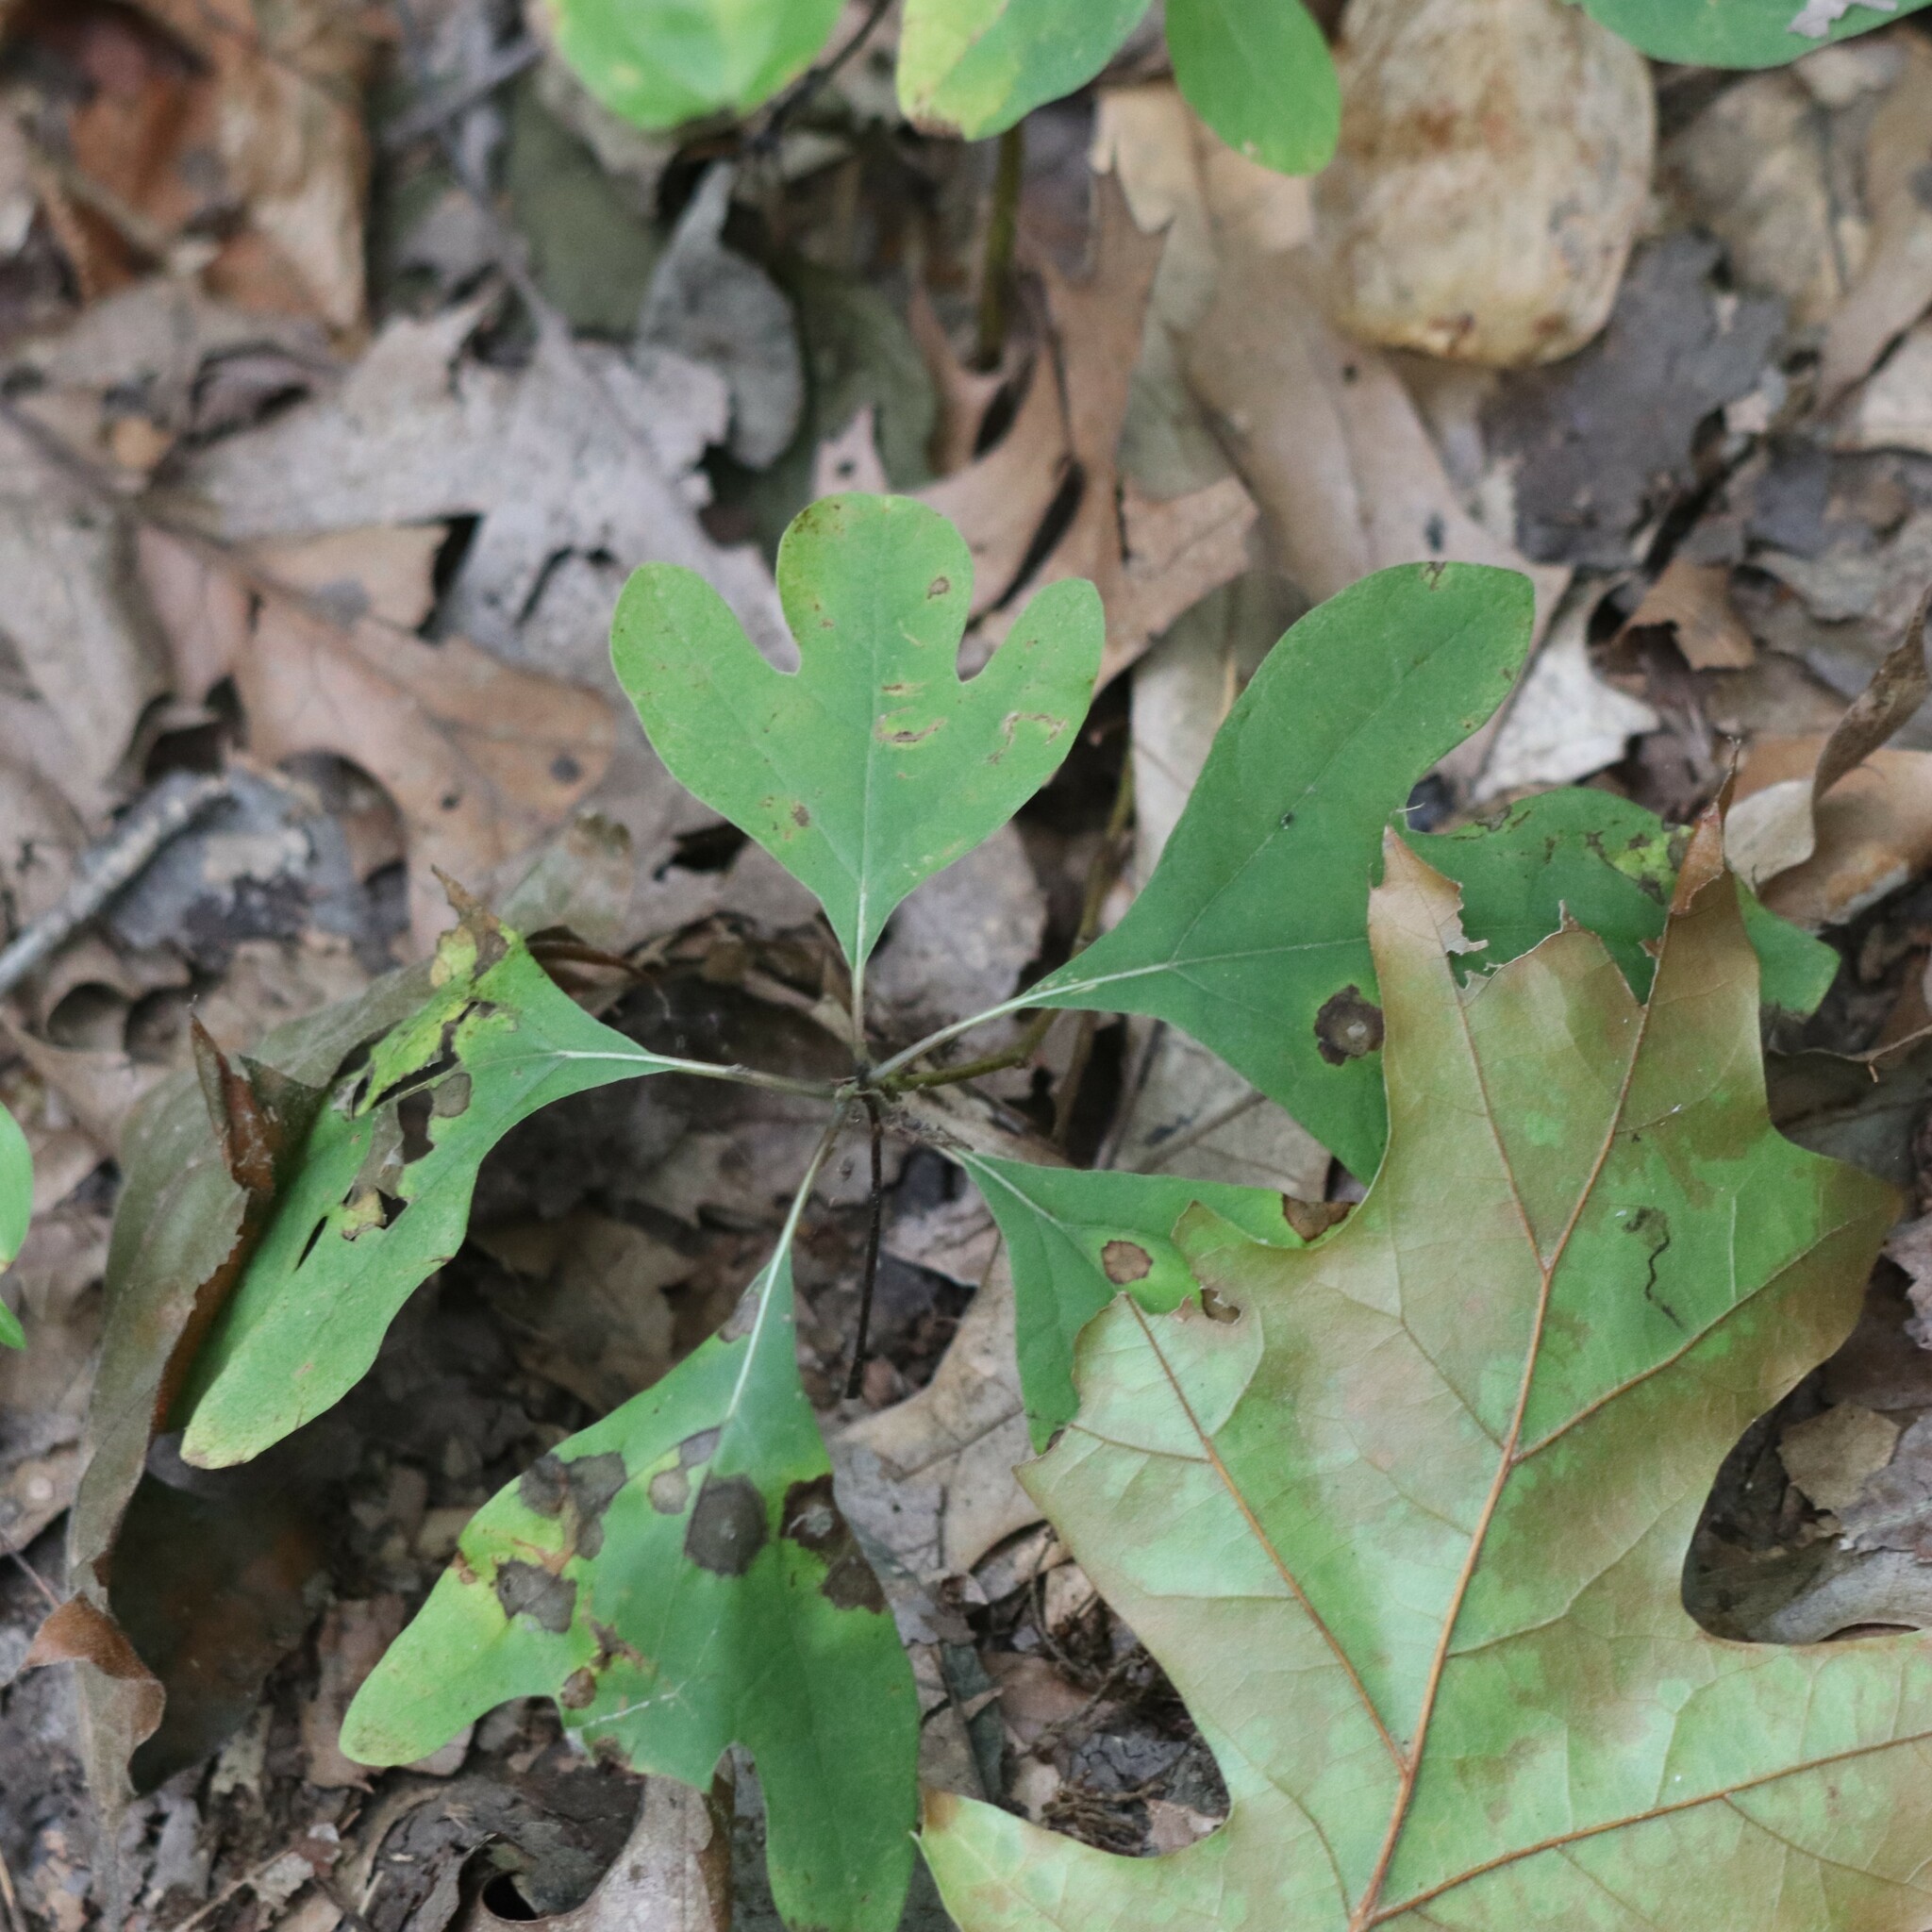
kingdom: Plantae
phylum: Tracheophyta
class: Magnoliopsida
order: Laurales
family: Lauraceae
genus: Sassafras
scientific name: Sassafras albidum
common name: Sassafras
